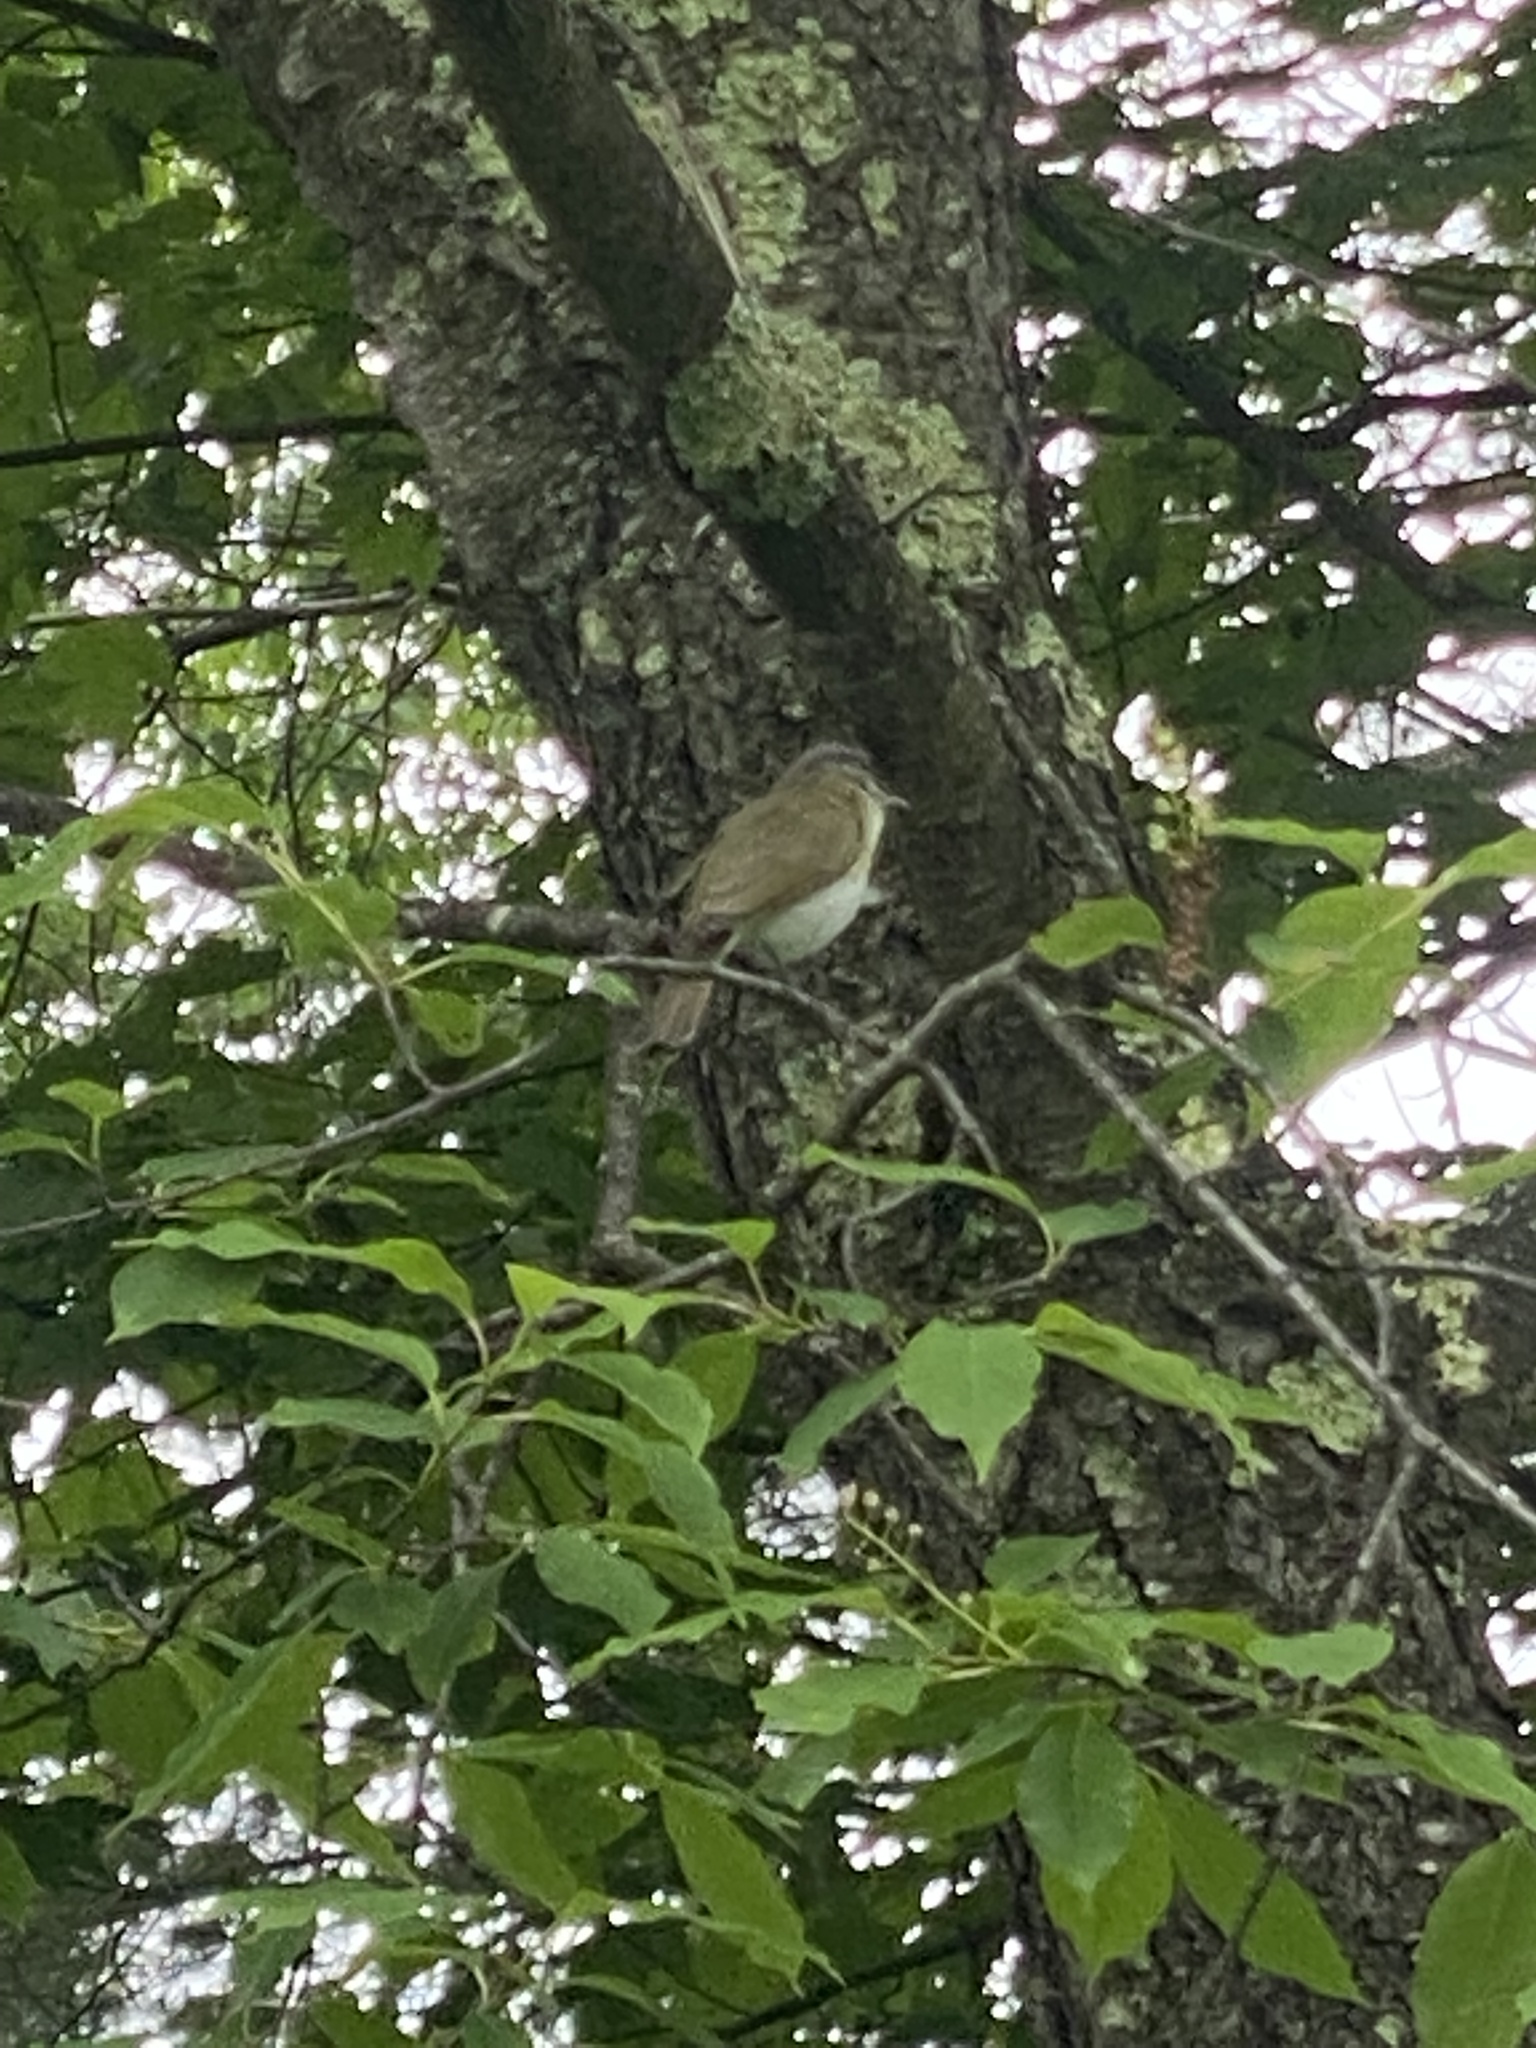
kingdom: Animalia
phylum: Chordata
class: Aves
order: Passeriformes
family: Vireonidae
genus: Vireo
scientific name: Vireo olivaceus
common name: Red-eyed vireo
